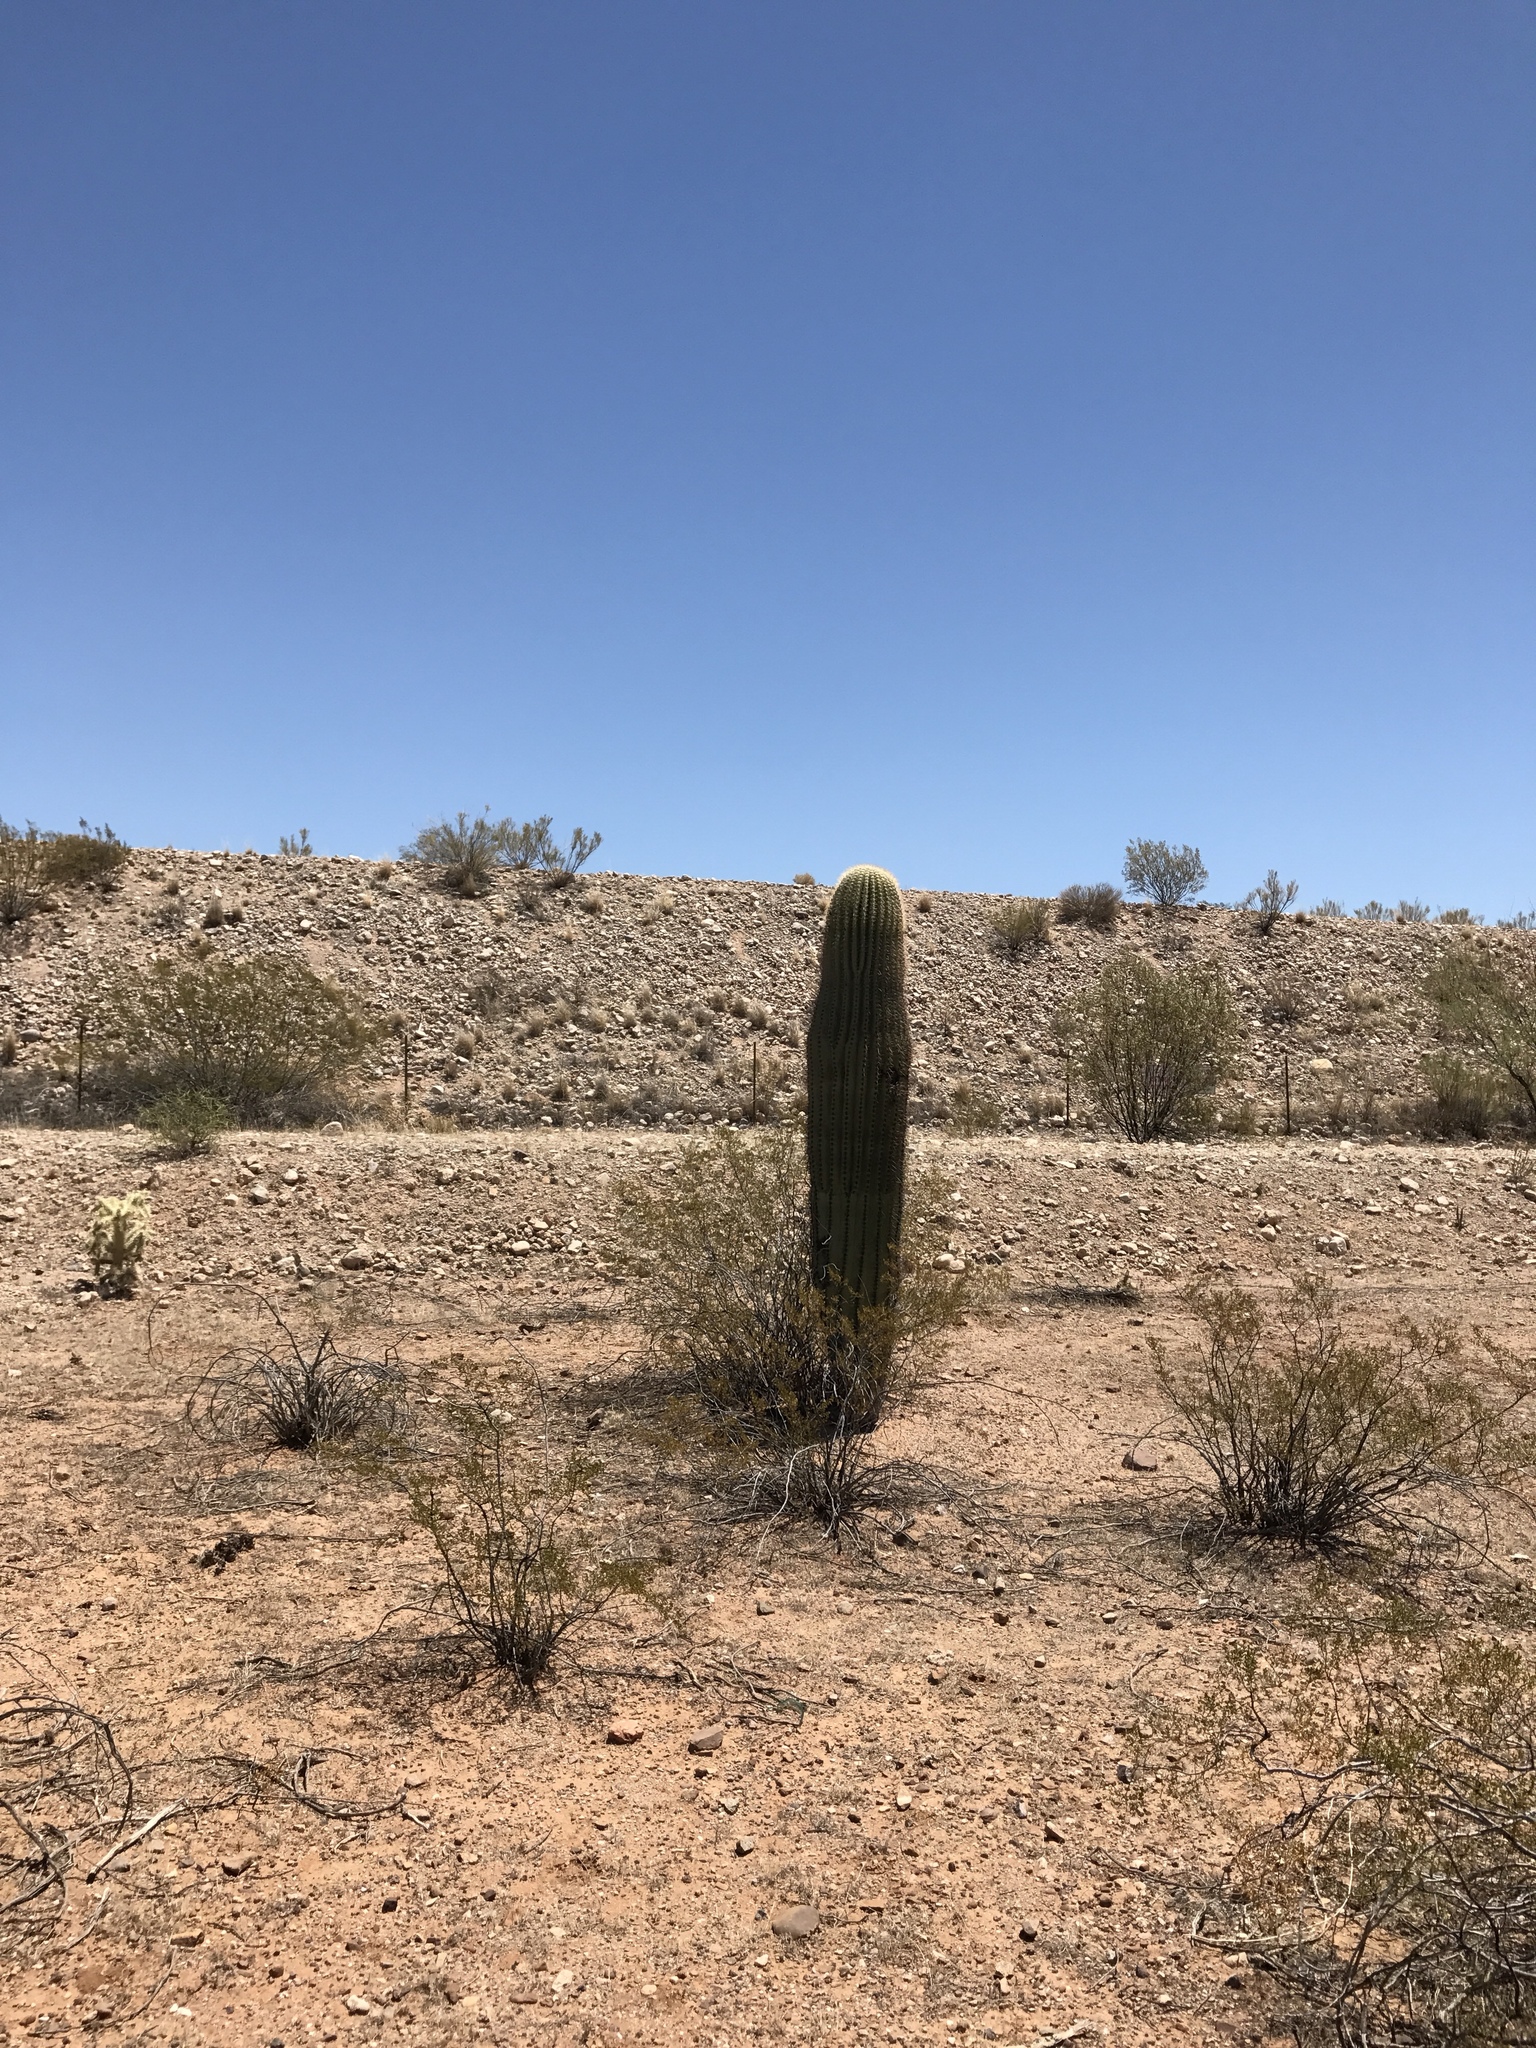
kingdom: Plantae
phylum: Tracheophyta
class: Magnoliopsida
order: Caryophyllales
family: Cactaceae
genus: Carnegiea
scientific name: Carnegiea gigantea
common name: Saguaro
